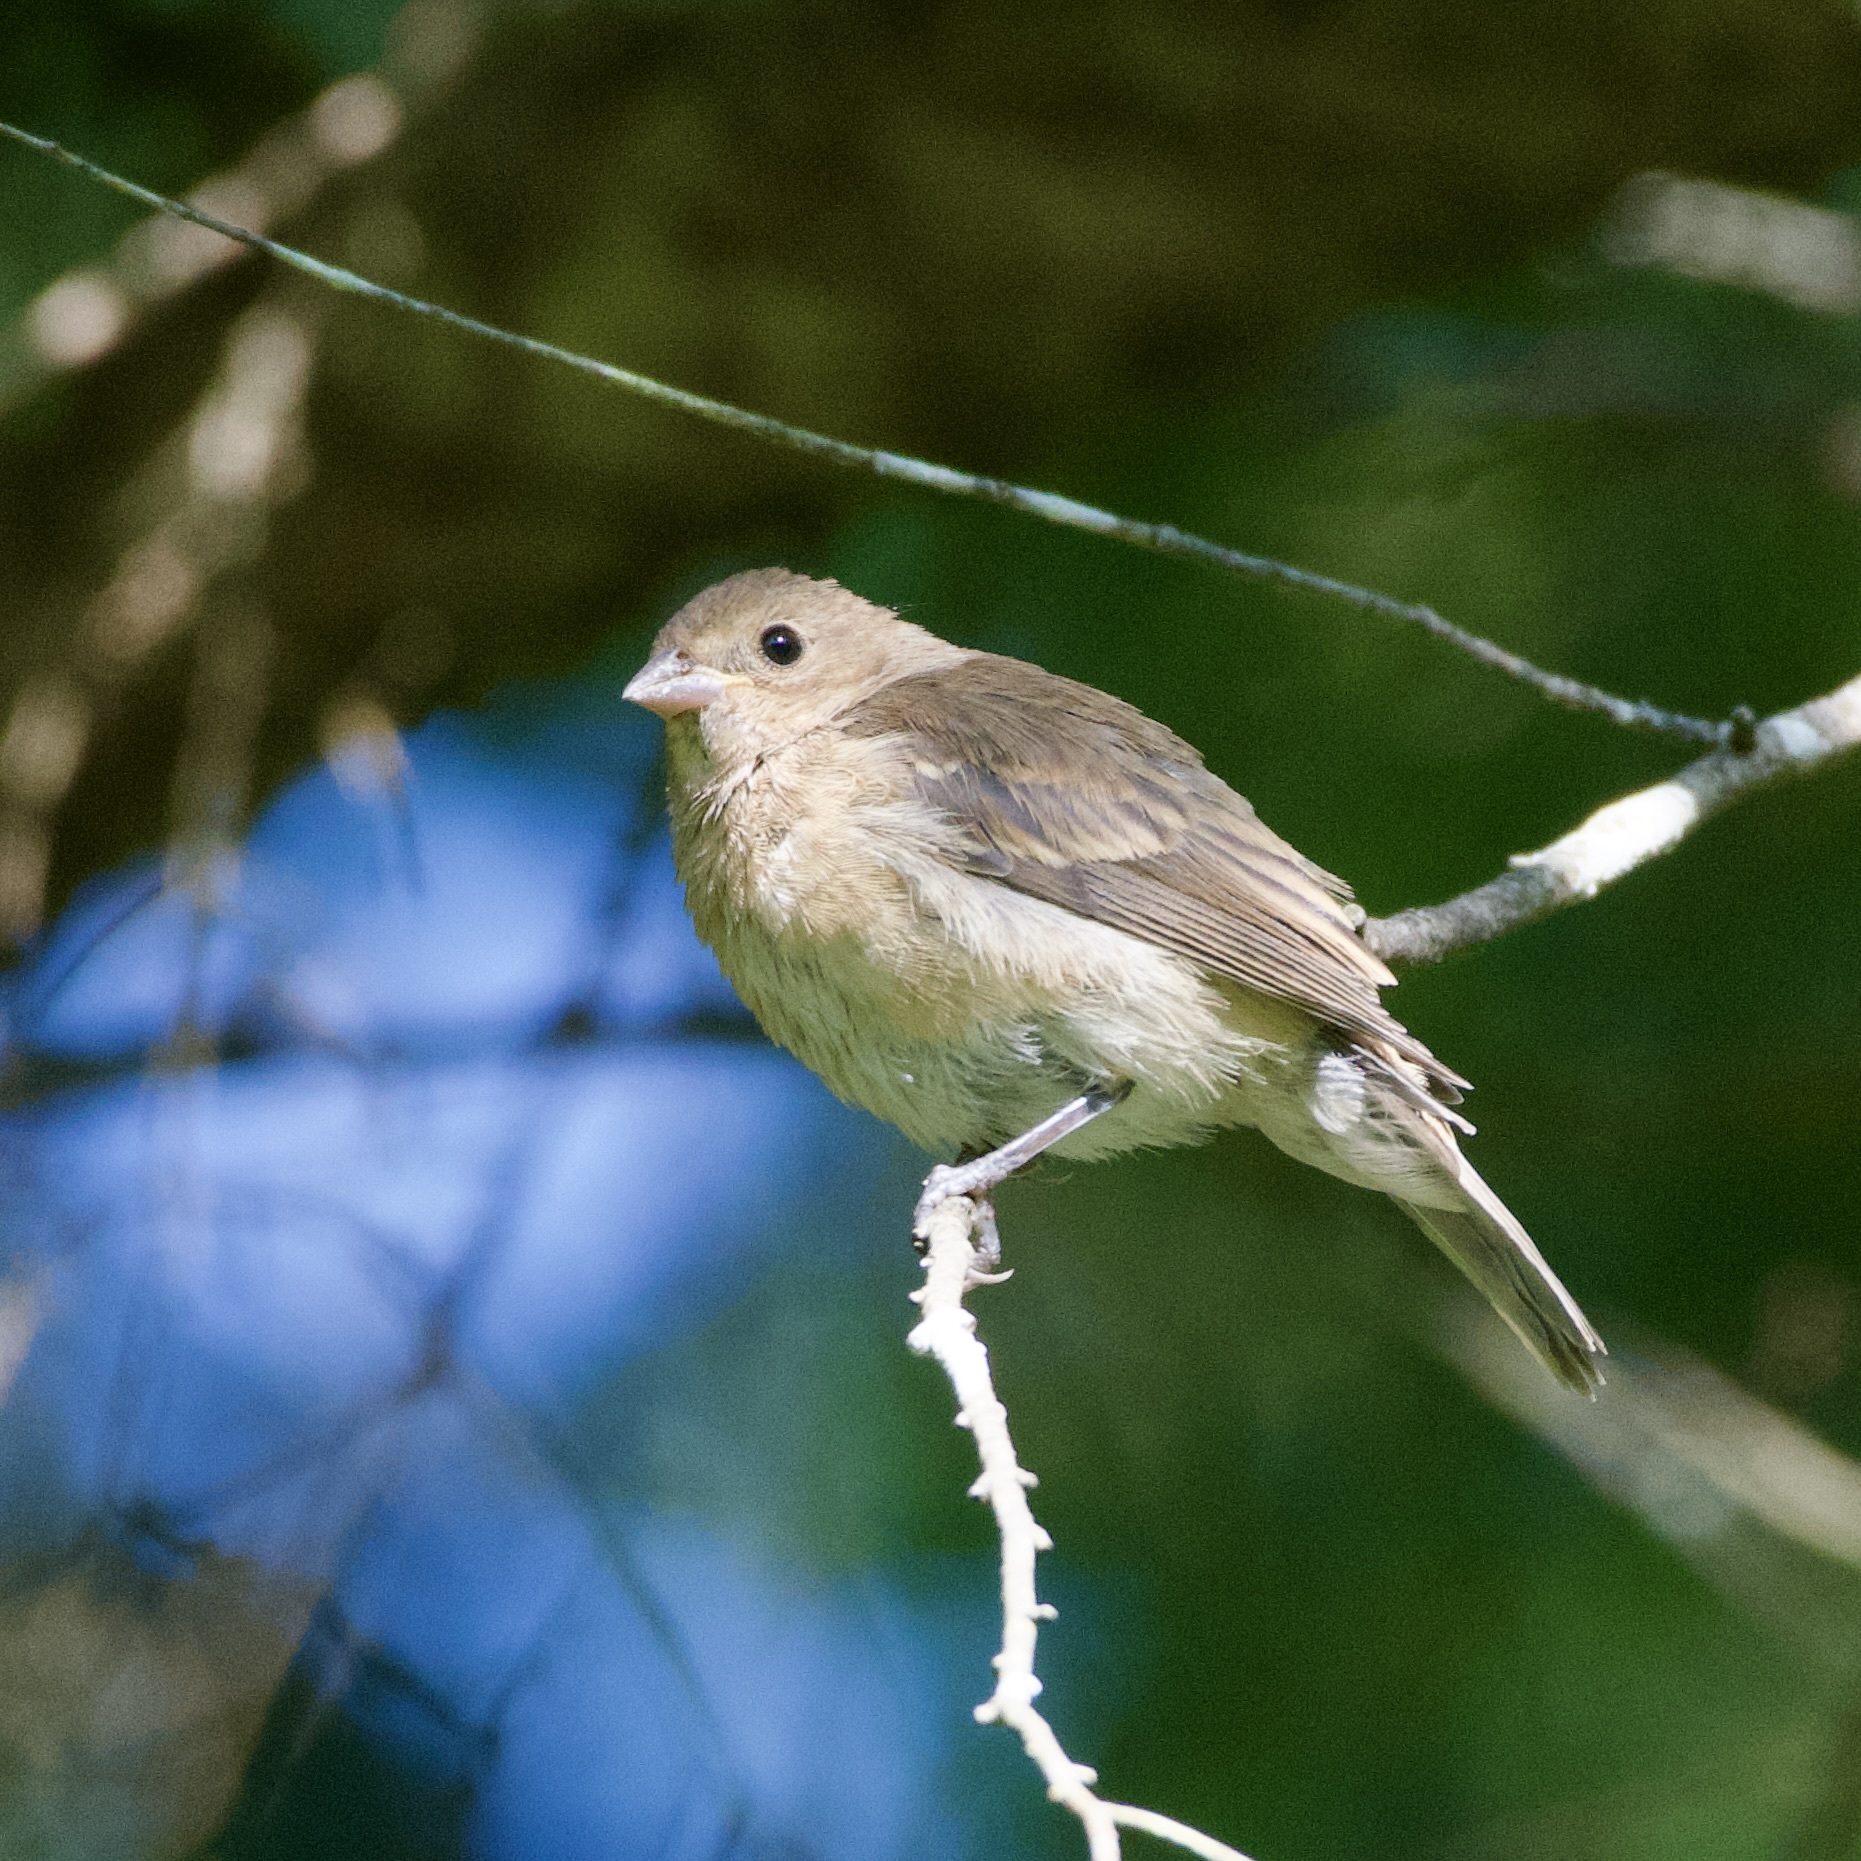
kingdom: Animalia
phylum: Chordata
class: Aves
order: Passeriformes
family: Cardinalidae
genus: Passerina
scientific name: Passerina cyanea
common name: Indigo bunting
